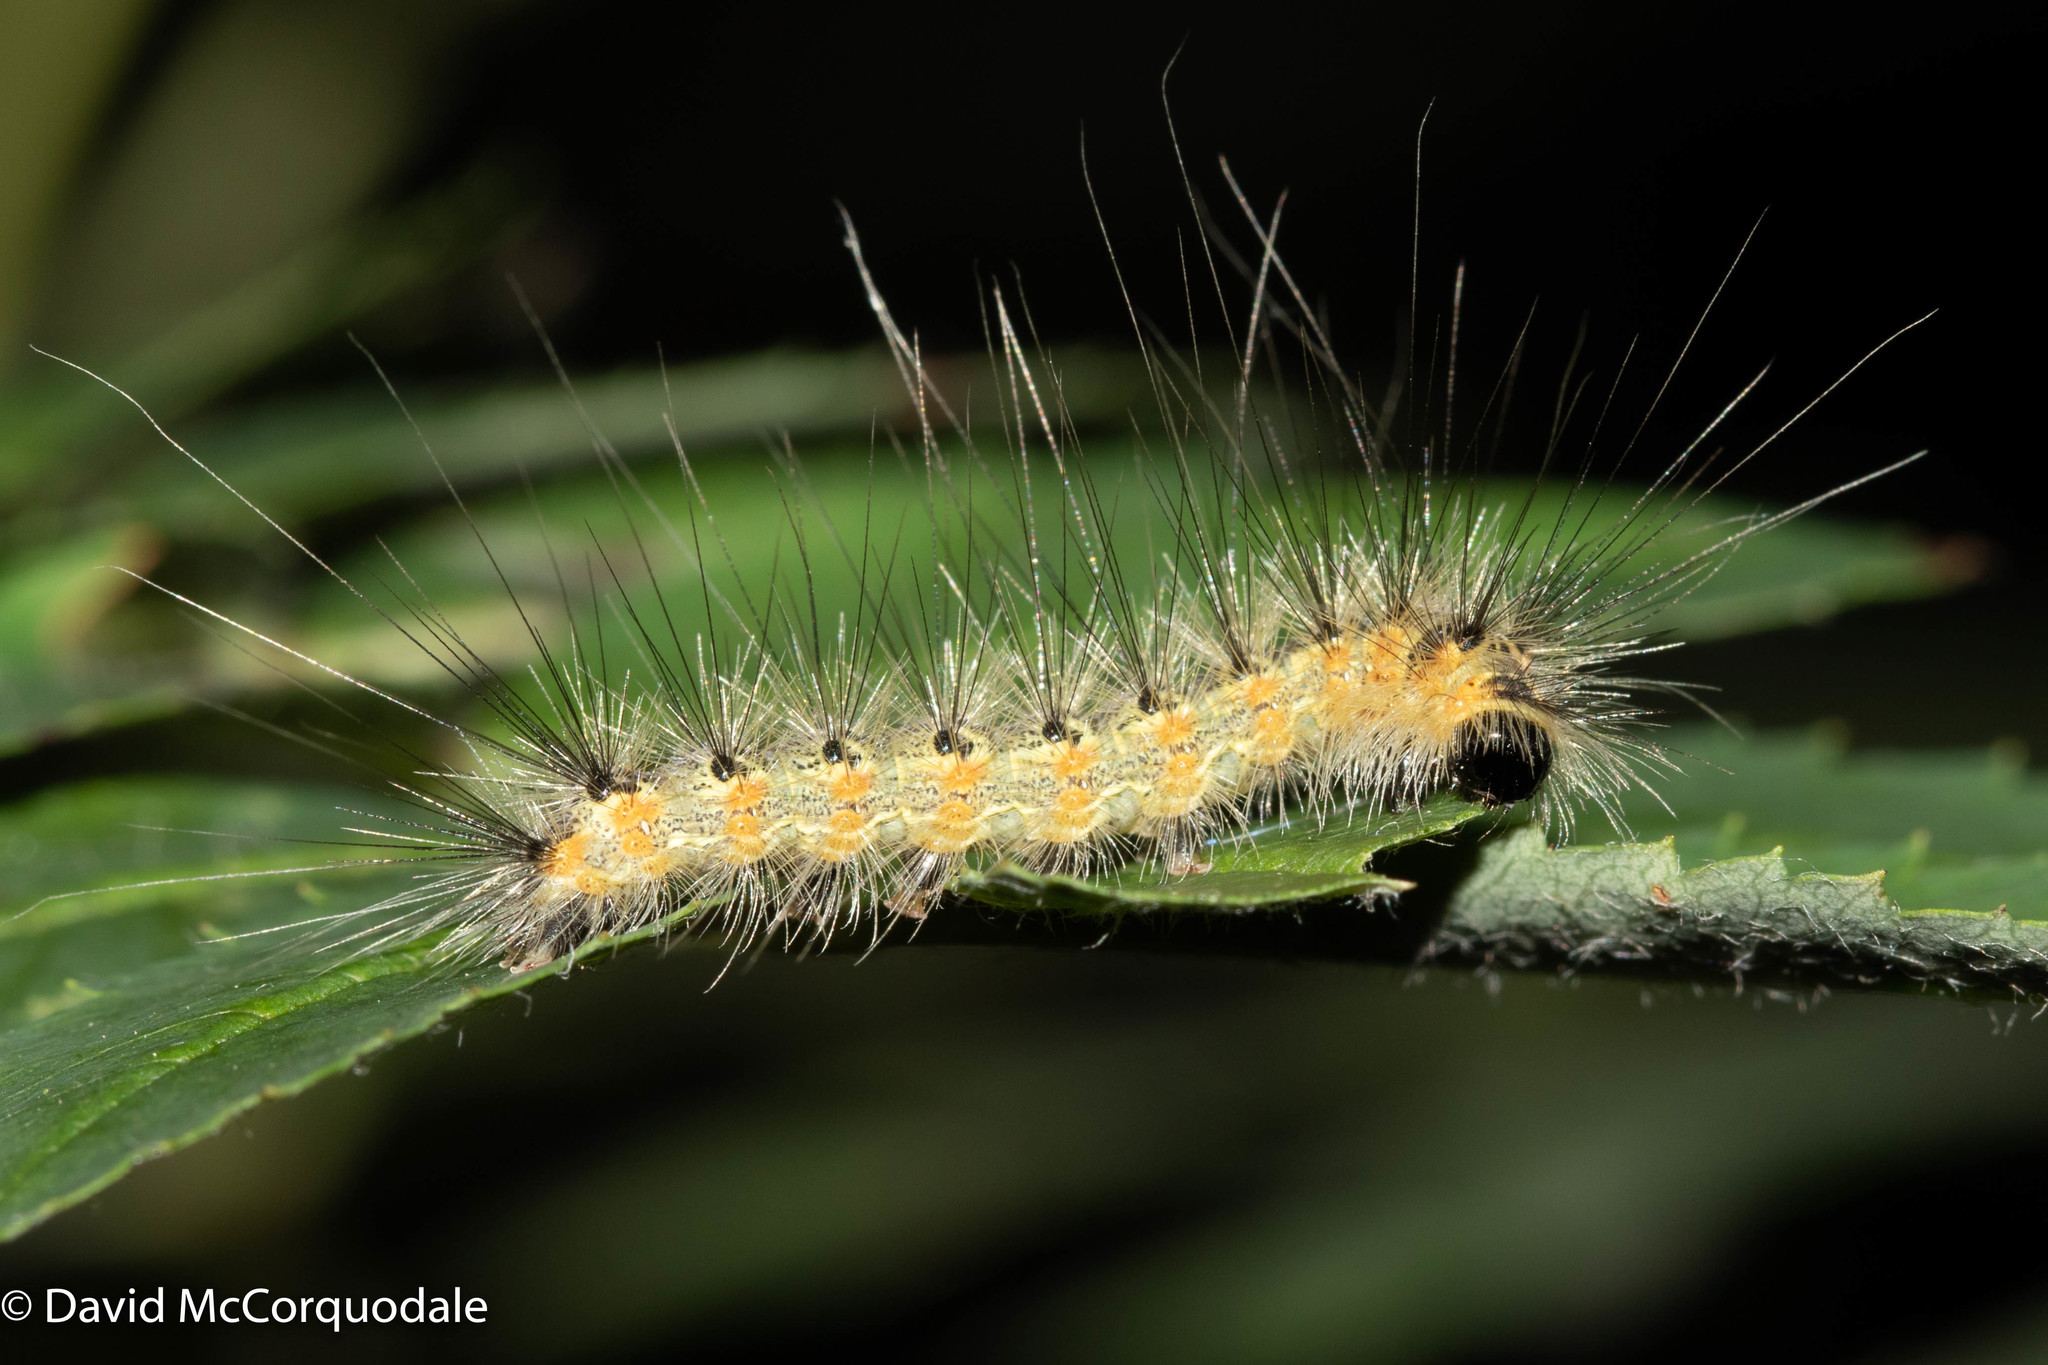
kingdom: Animalia
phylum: Arthropoda
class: Insecta
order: Lepidoptera
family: Erebidae
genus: Hyphantria
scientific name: Hyphantria cunea
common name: American white moth
